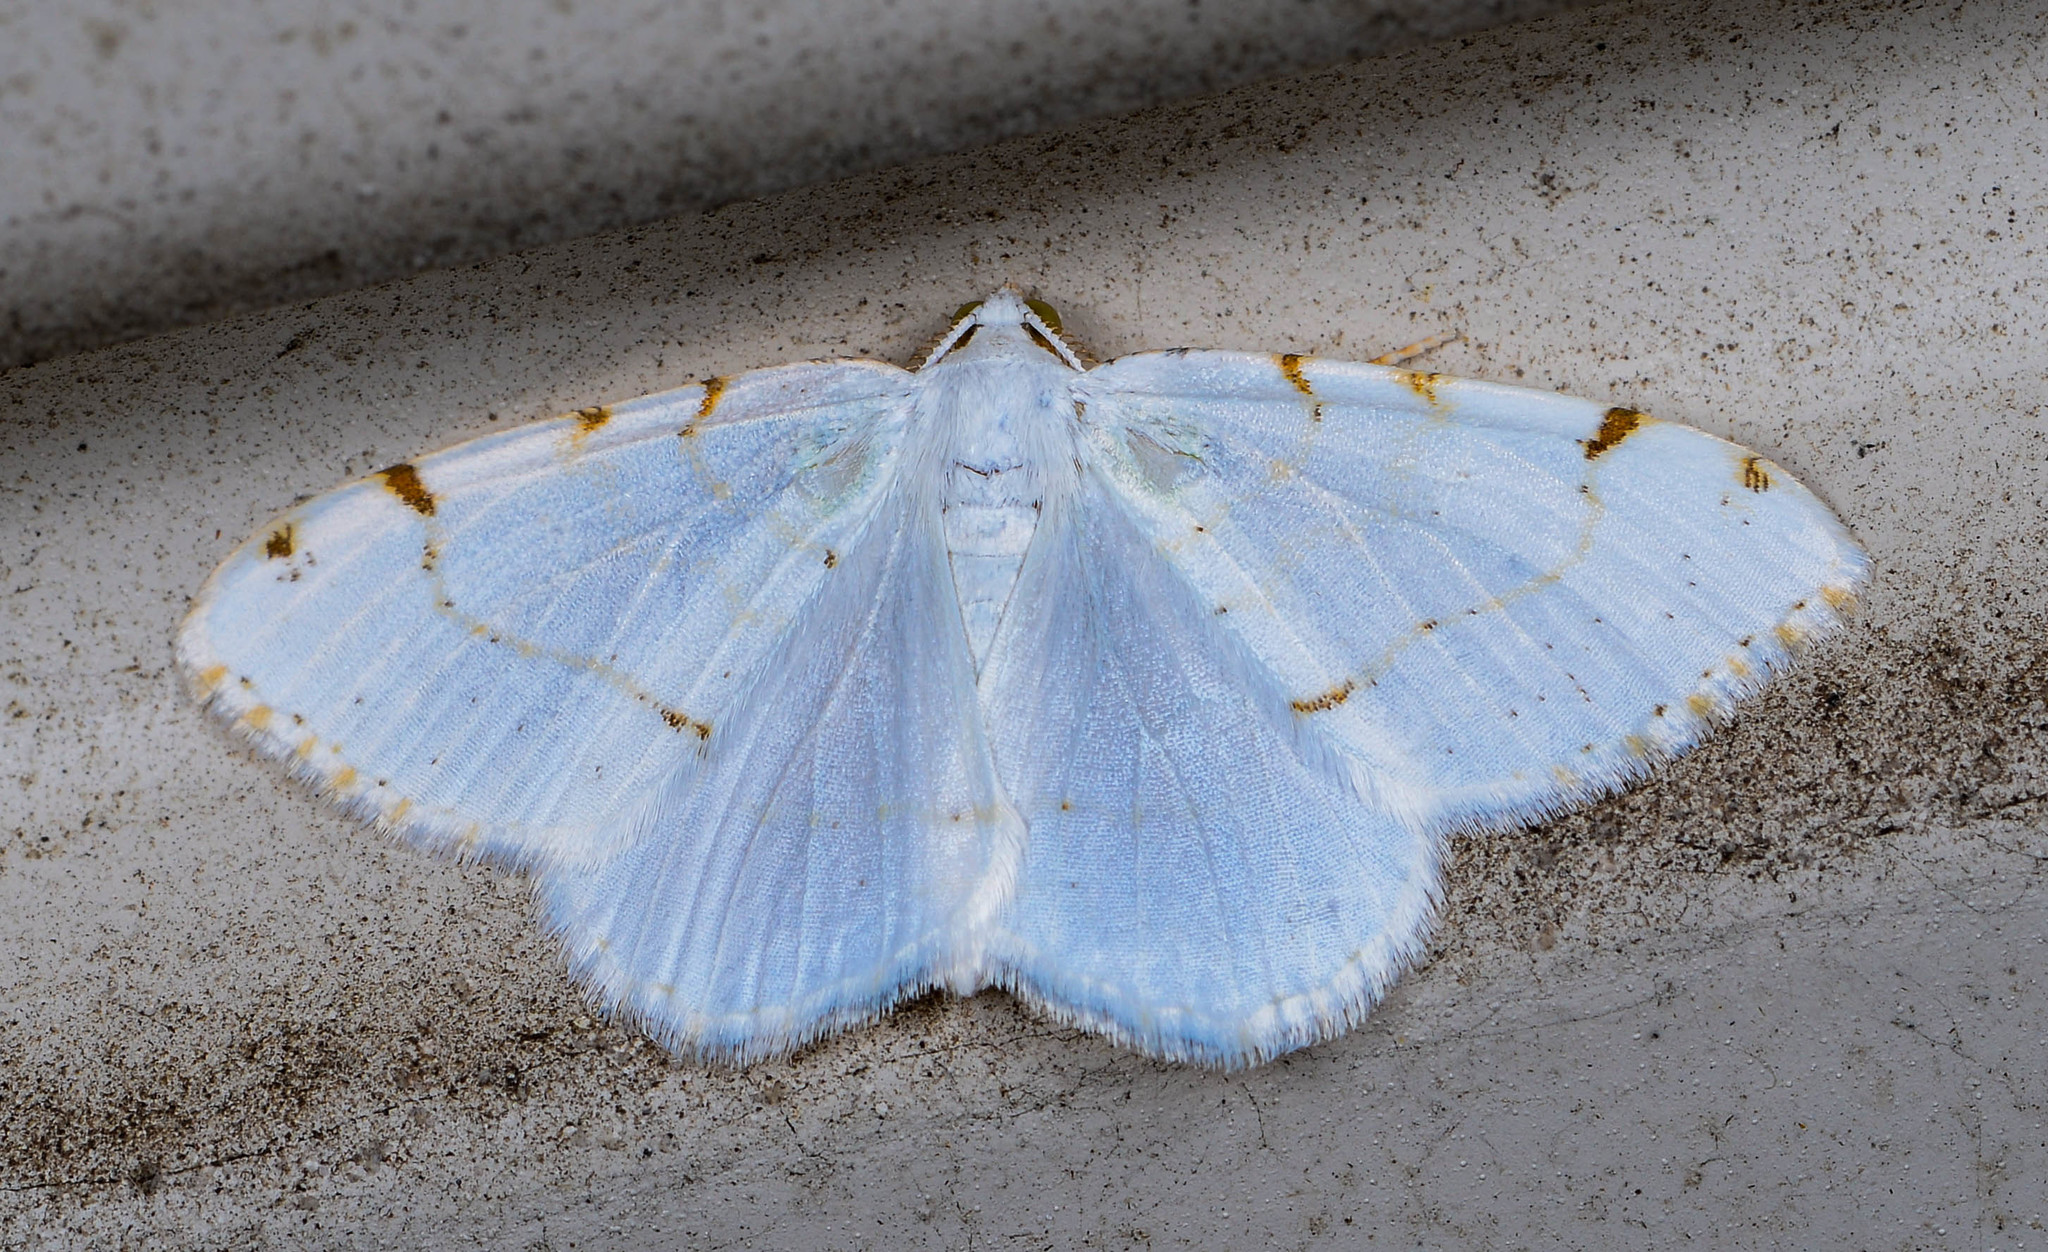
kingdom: Animalia
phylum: Arthropoda
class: Insecta
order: Lepidoptera
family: Geometridae
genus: Macaria
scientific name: Macaria pustularia
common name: Lesser maple spanworm moth
